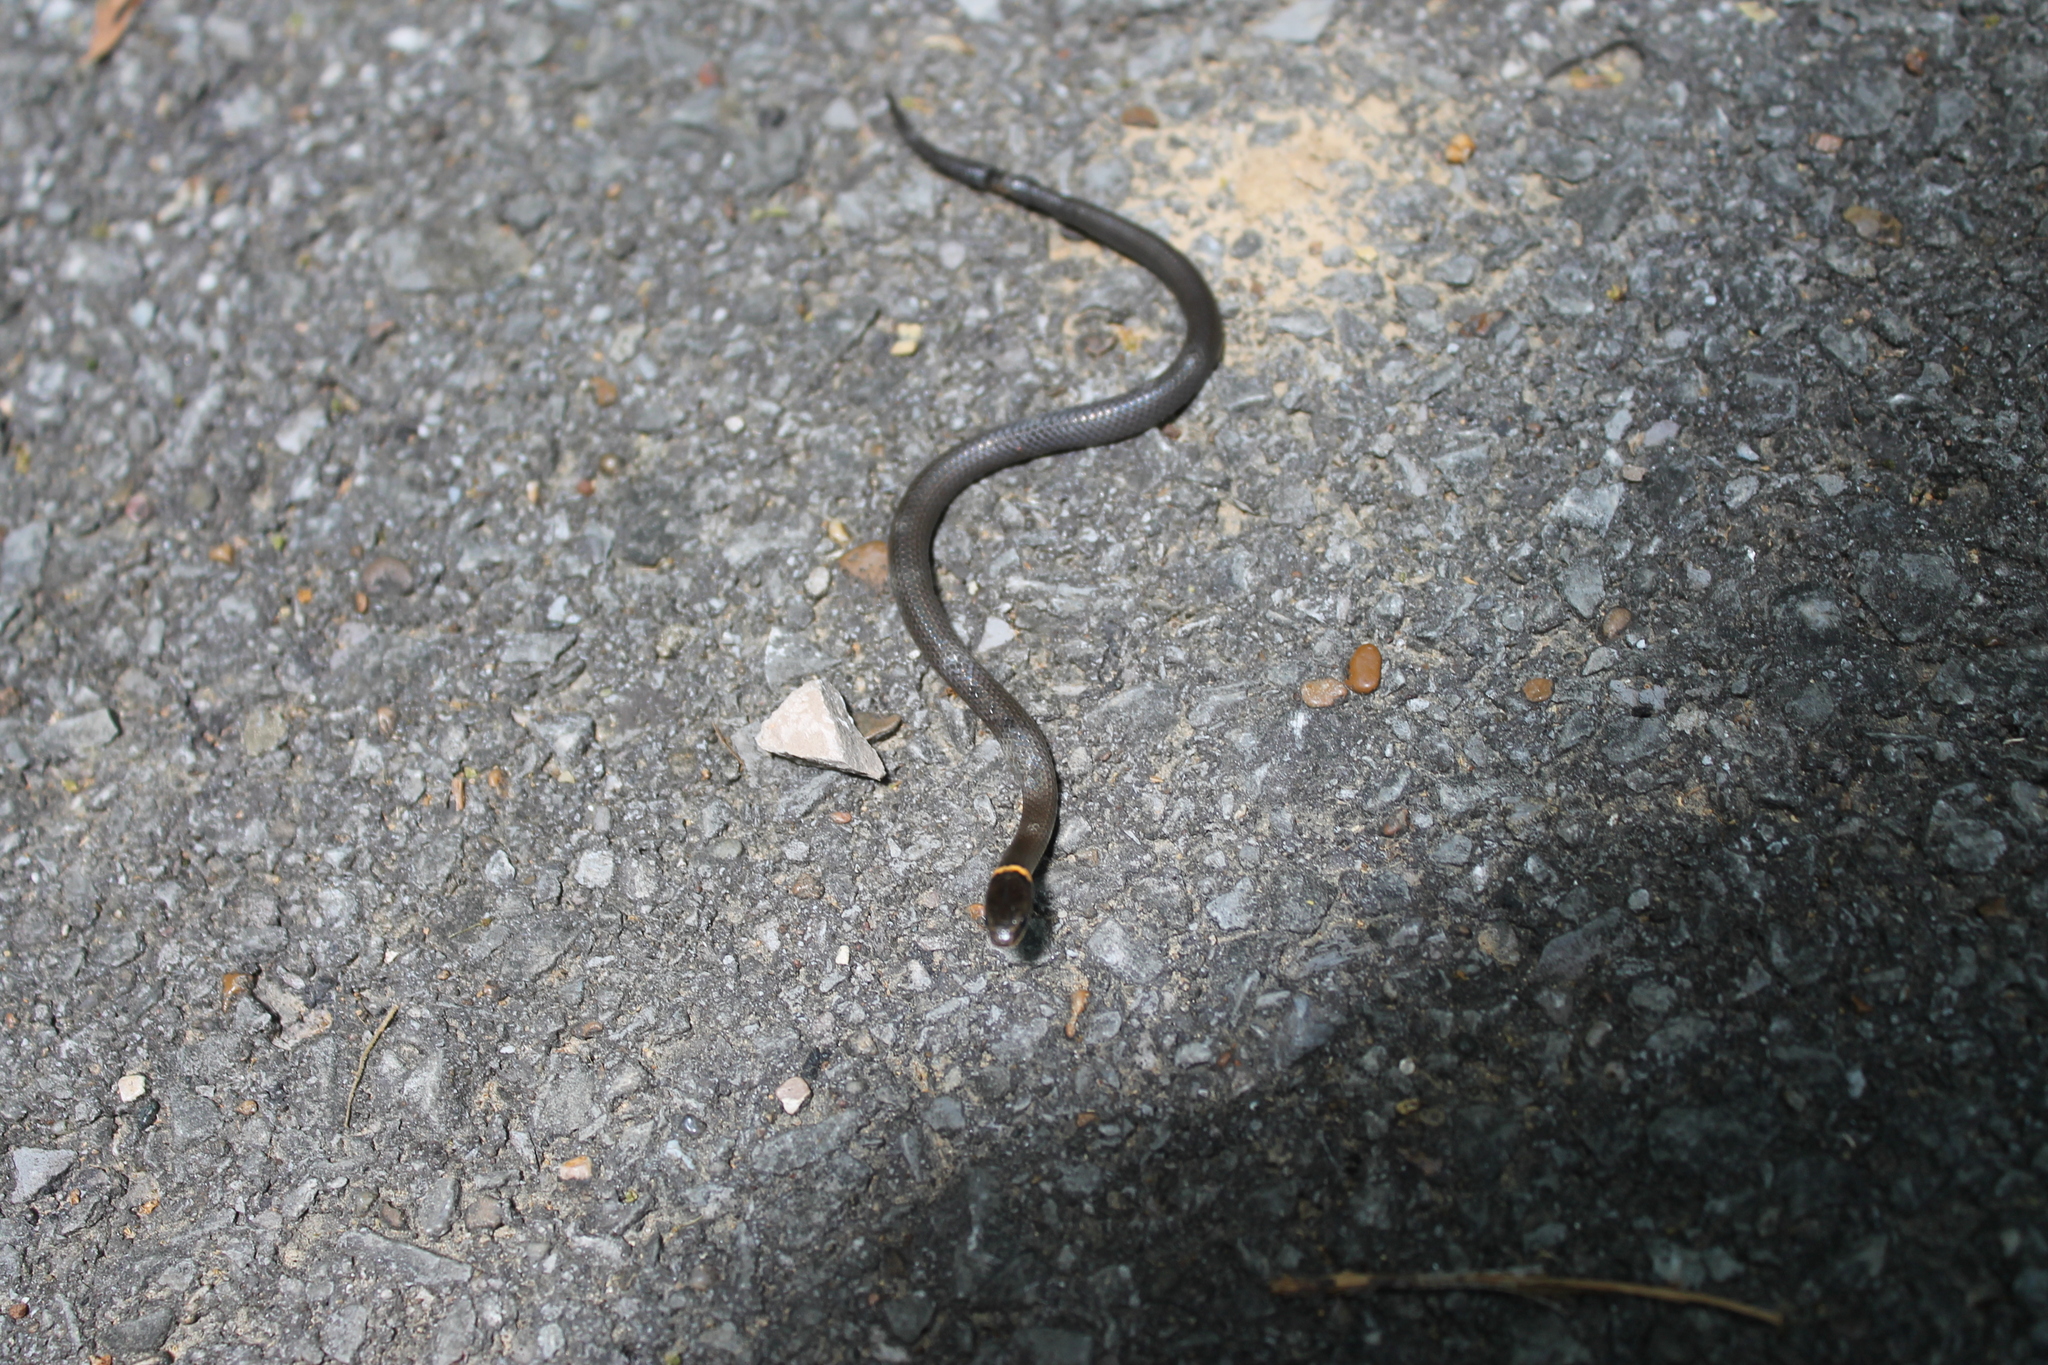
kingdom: Animalia
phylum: Chordata
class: Squamata
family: Colubridae
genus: Diadophis
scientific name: Diadophis punctatus
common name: Ringneck snake
